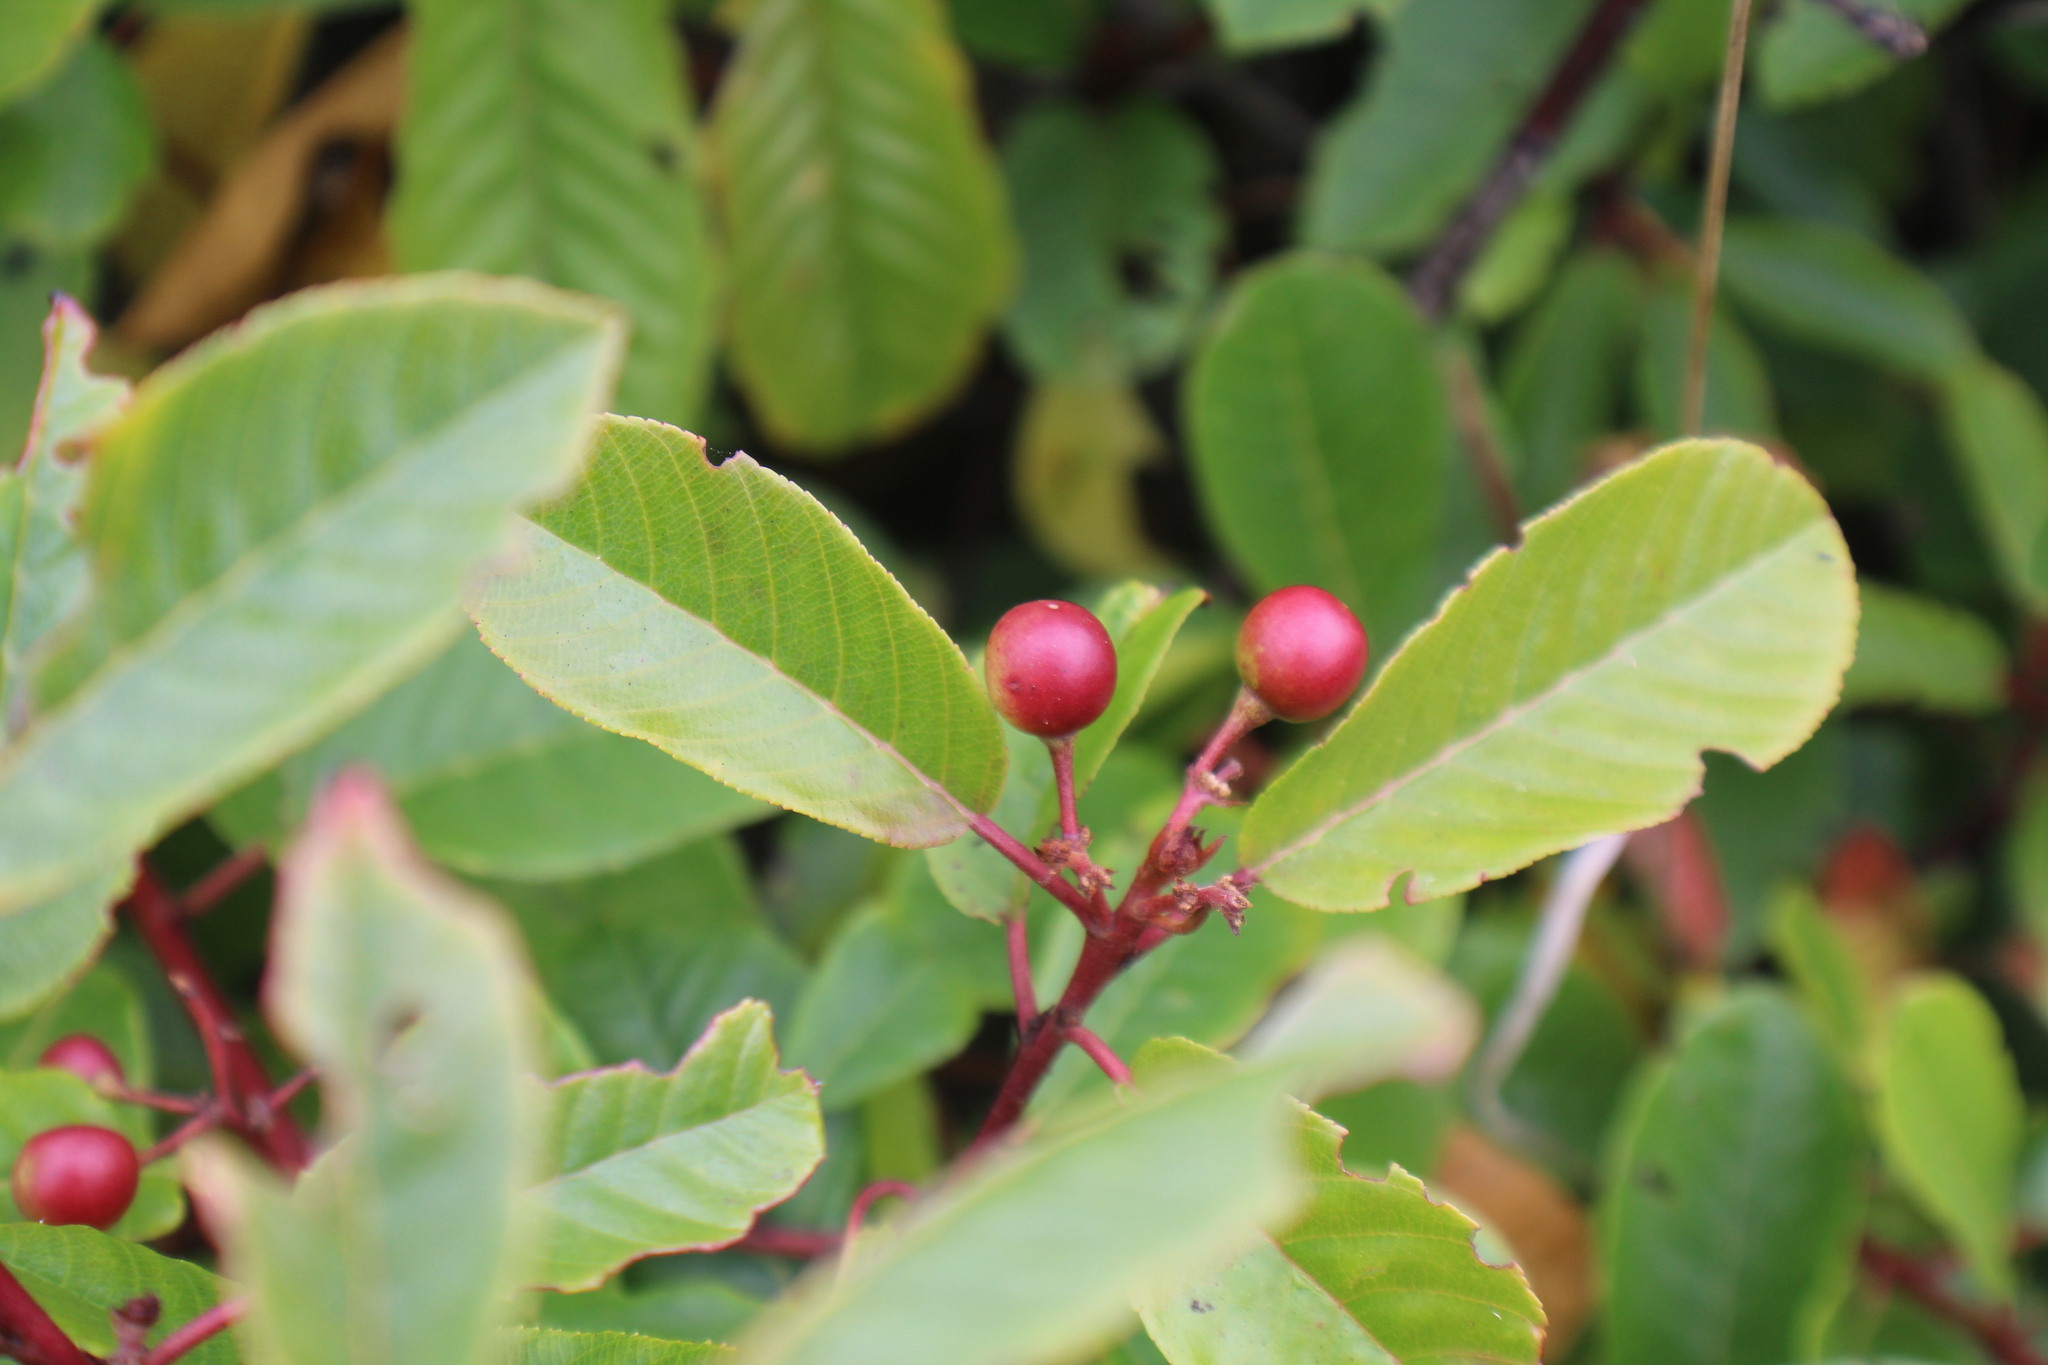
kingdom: Plantae
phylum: Tracheophyta
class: Magnoliopsida
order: Rosales
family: Rhamnaceae
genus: Frangula
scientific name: Frangula californica
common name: California buckthorn
